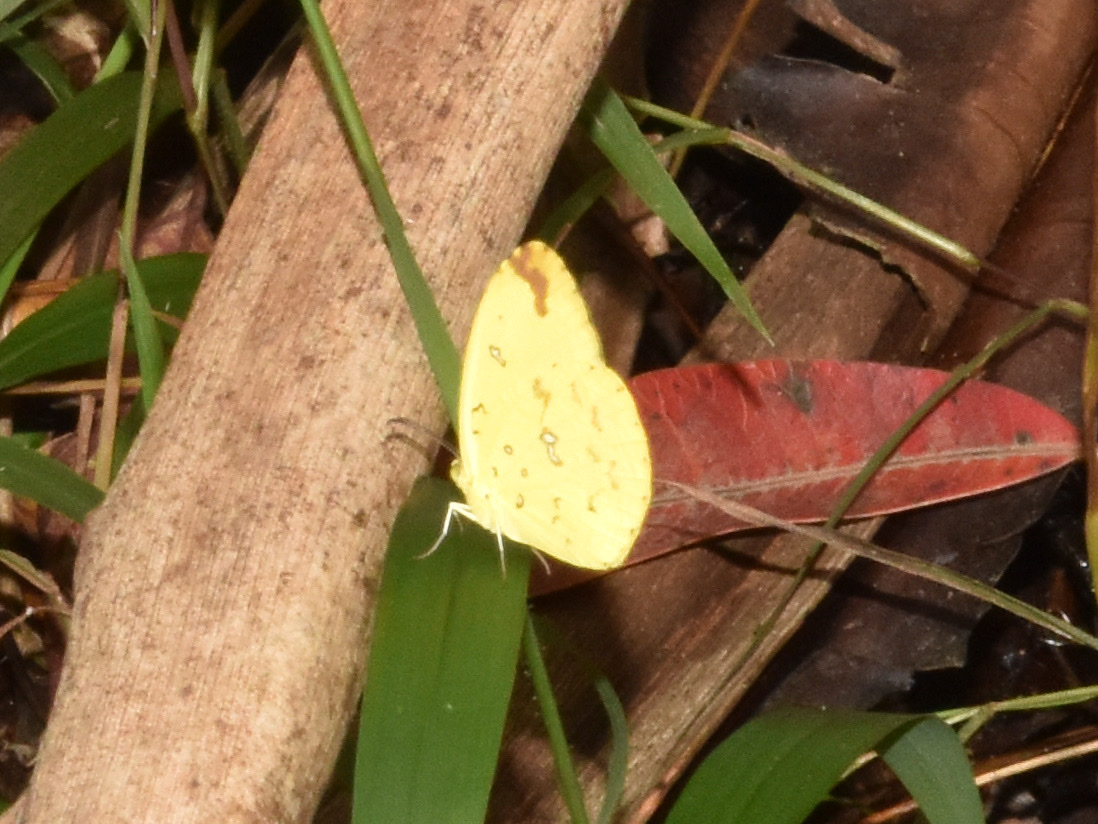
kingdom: Animalia
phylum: Arthropoda
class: Insecta
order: Lepidoptera
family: Pieridae
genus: Eurema
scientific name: Eurema
